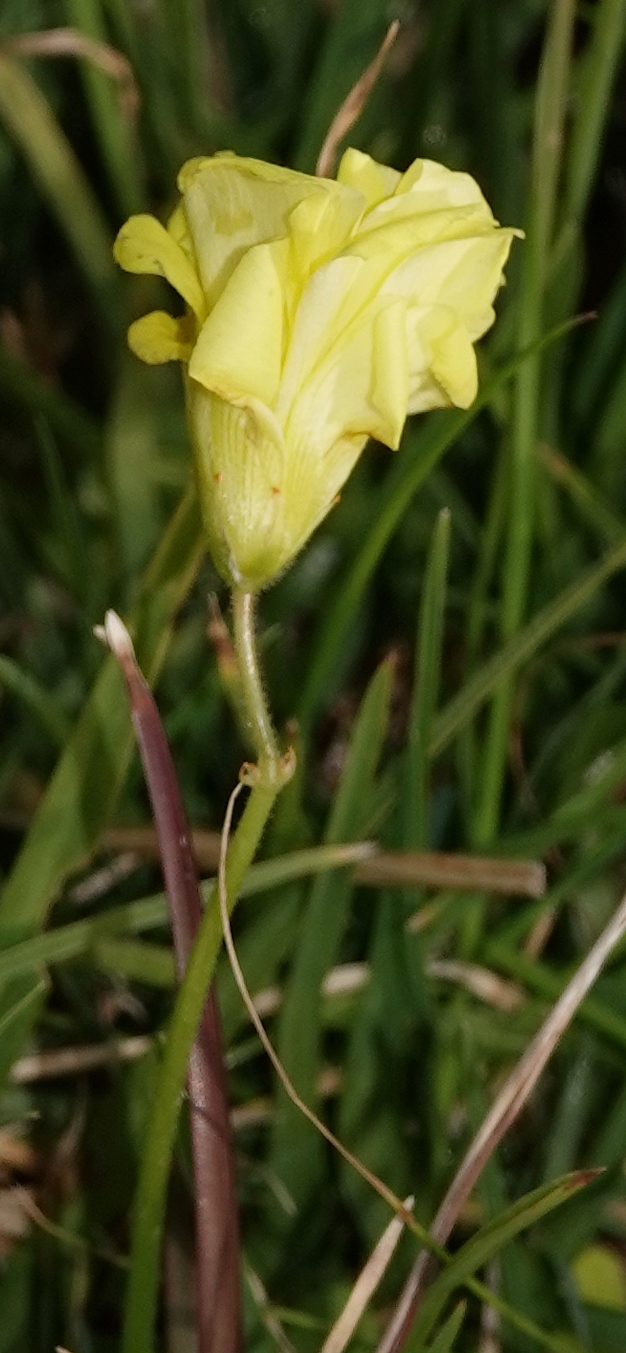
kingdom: Plantae
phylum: Tracheophyta
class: Magnoliopsida
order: Oxalidales
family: Oxalidaceae
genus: Oxalis
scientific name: Oxalis pes-caprae
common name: Bermuda-buttercup
